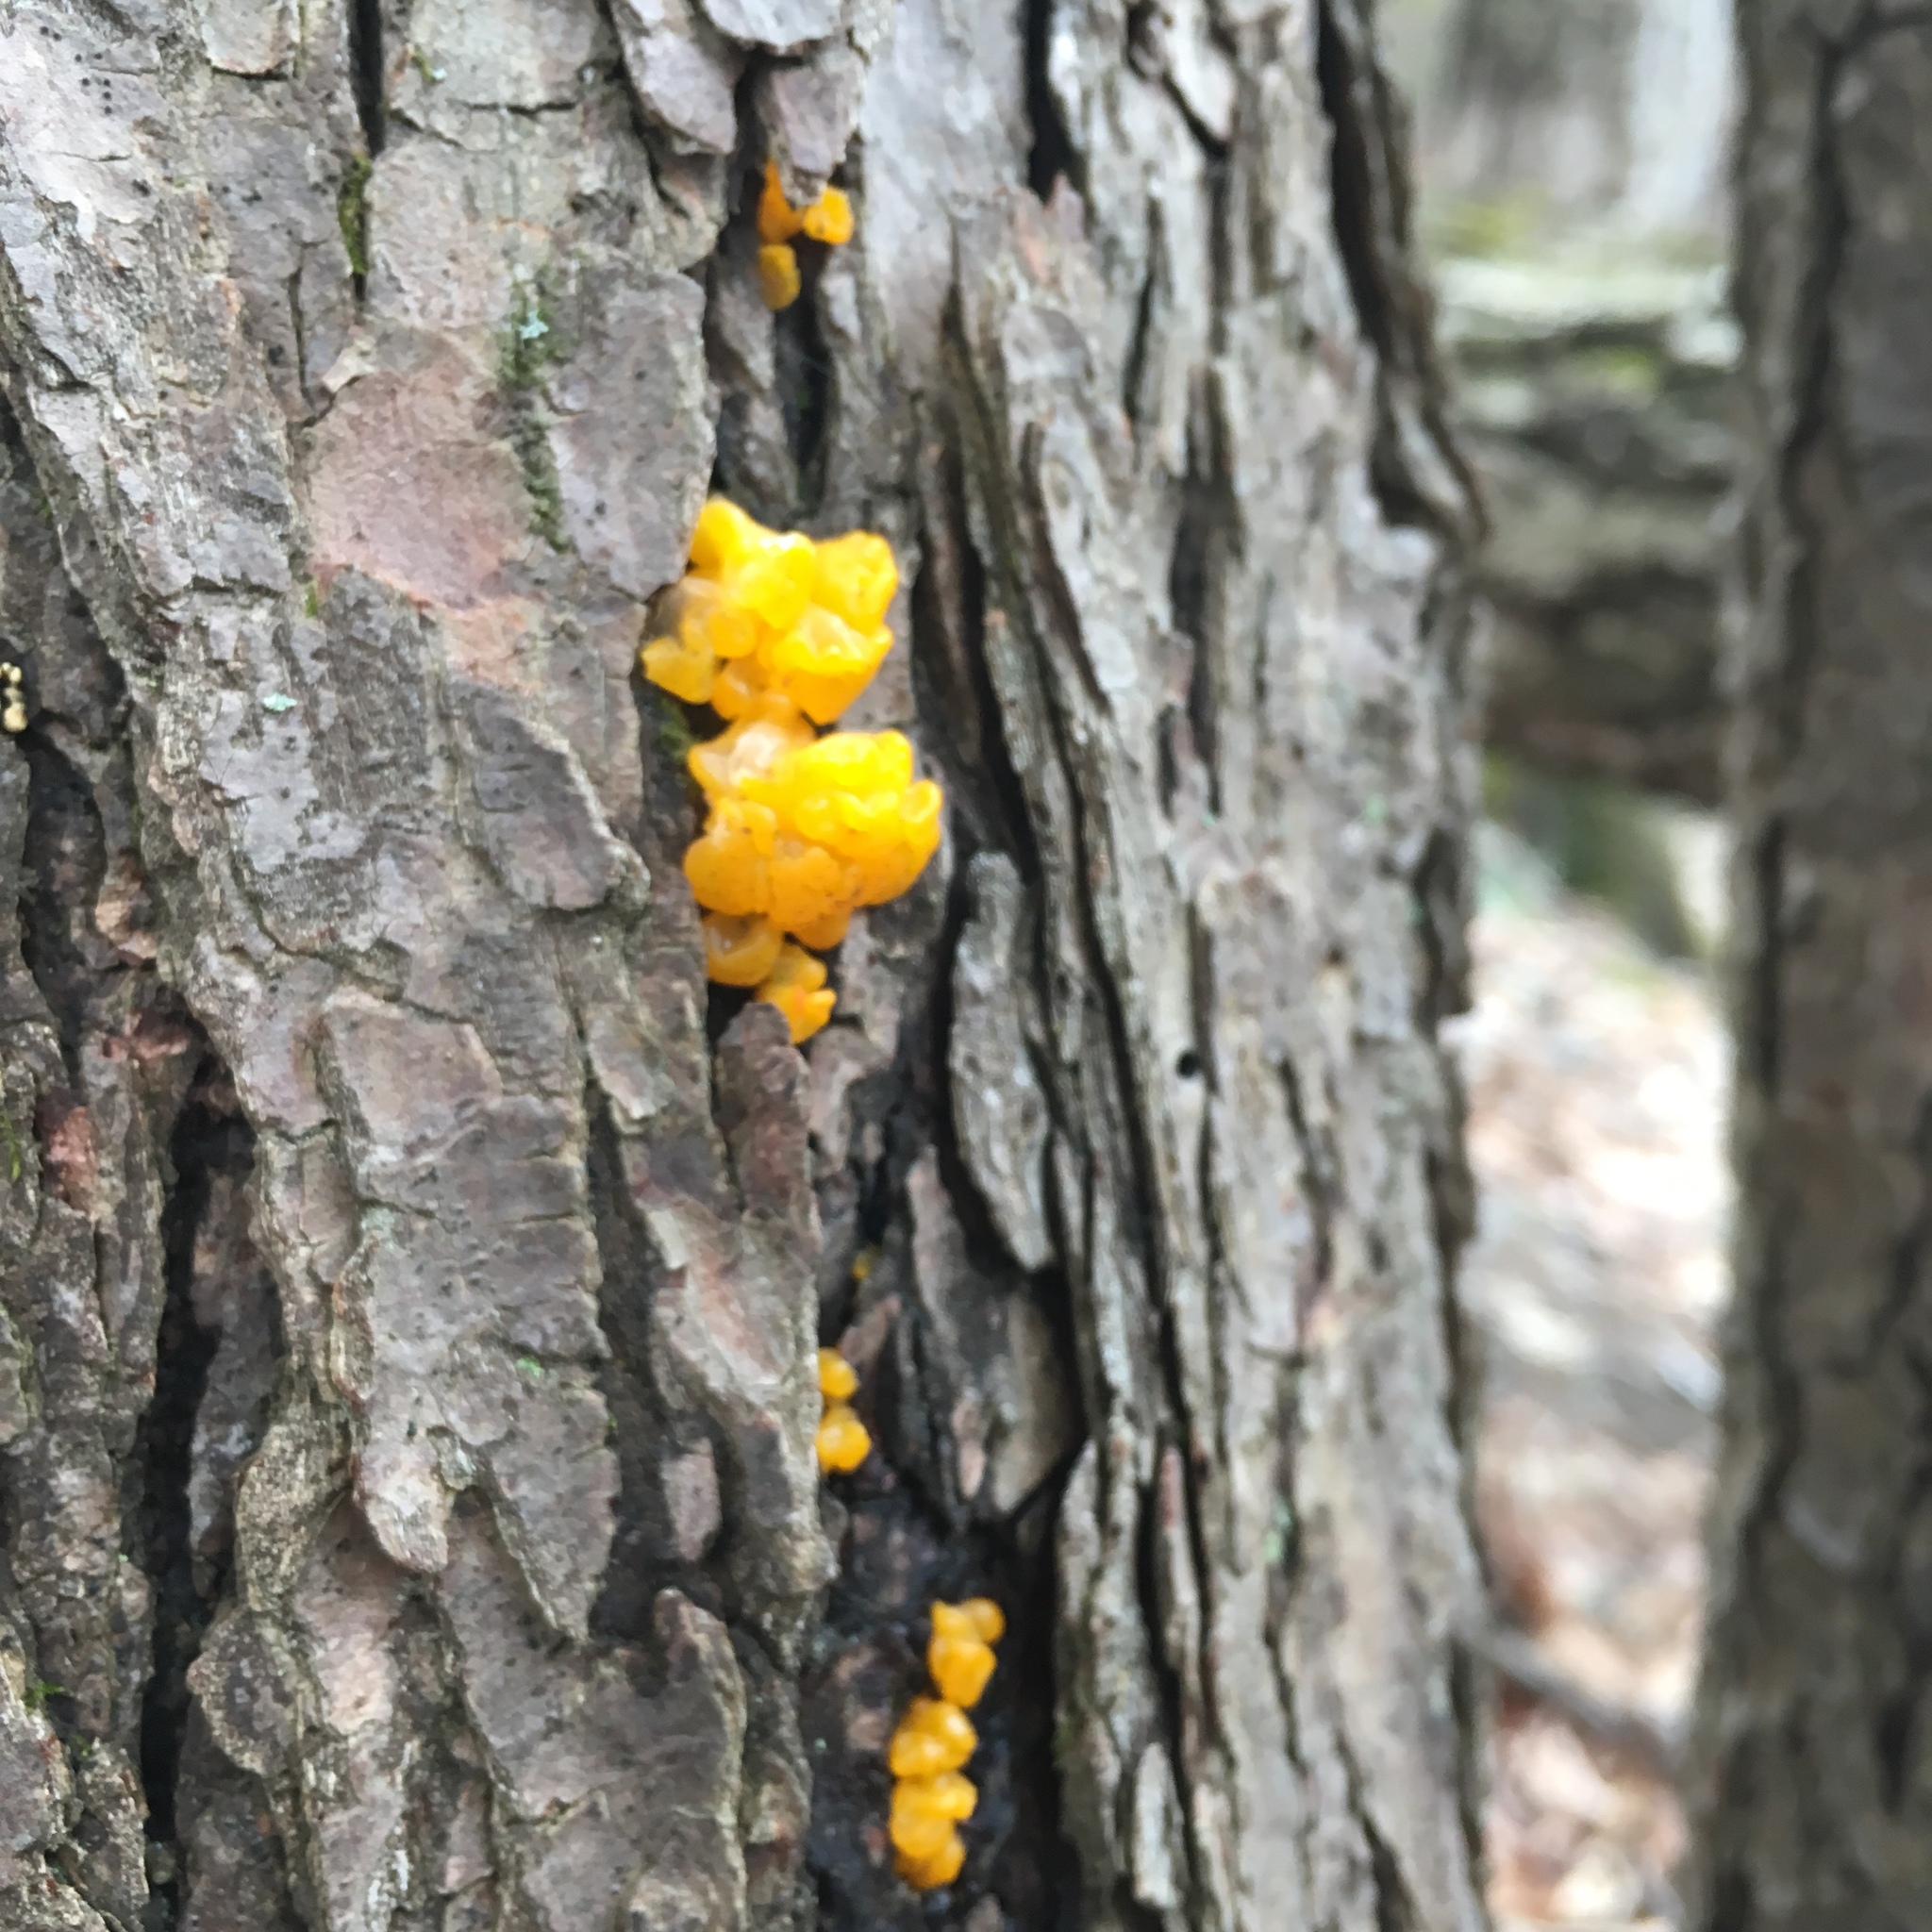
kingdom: Fungi
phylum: Basidiomycota
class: Dacrymycetes
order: Dacrymycetales
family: Dacrymycetaceae
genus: Dacrymyces
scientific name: Dacrymyces chrysospermus
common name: Orange jelly spot
